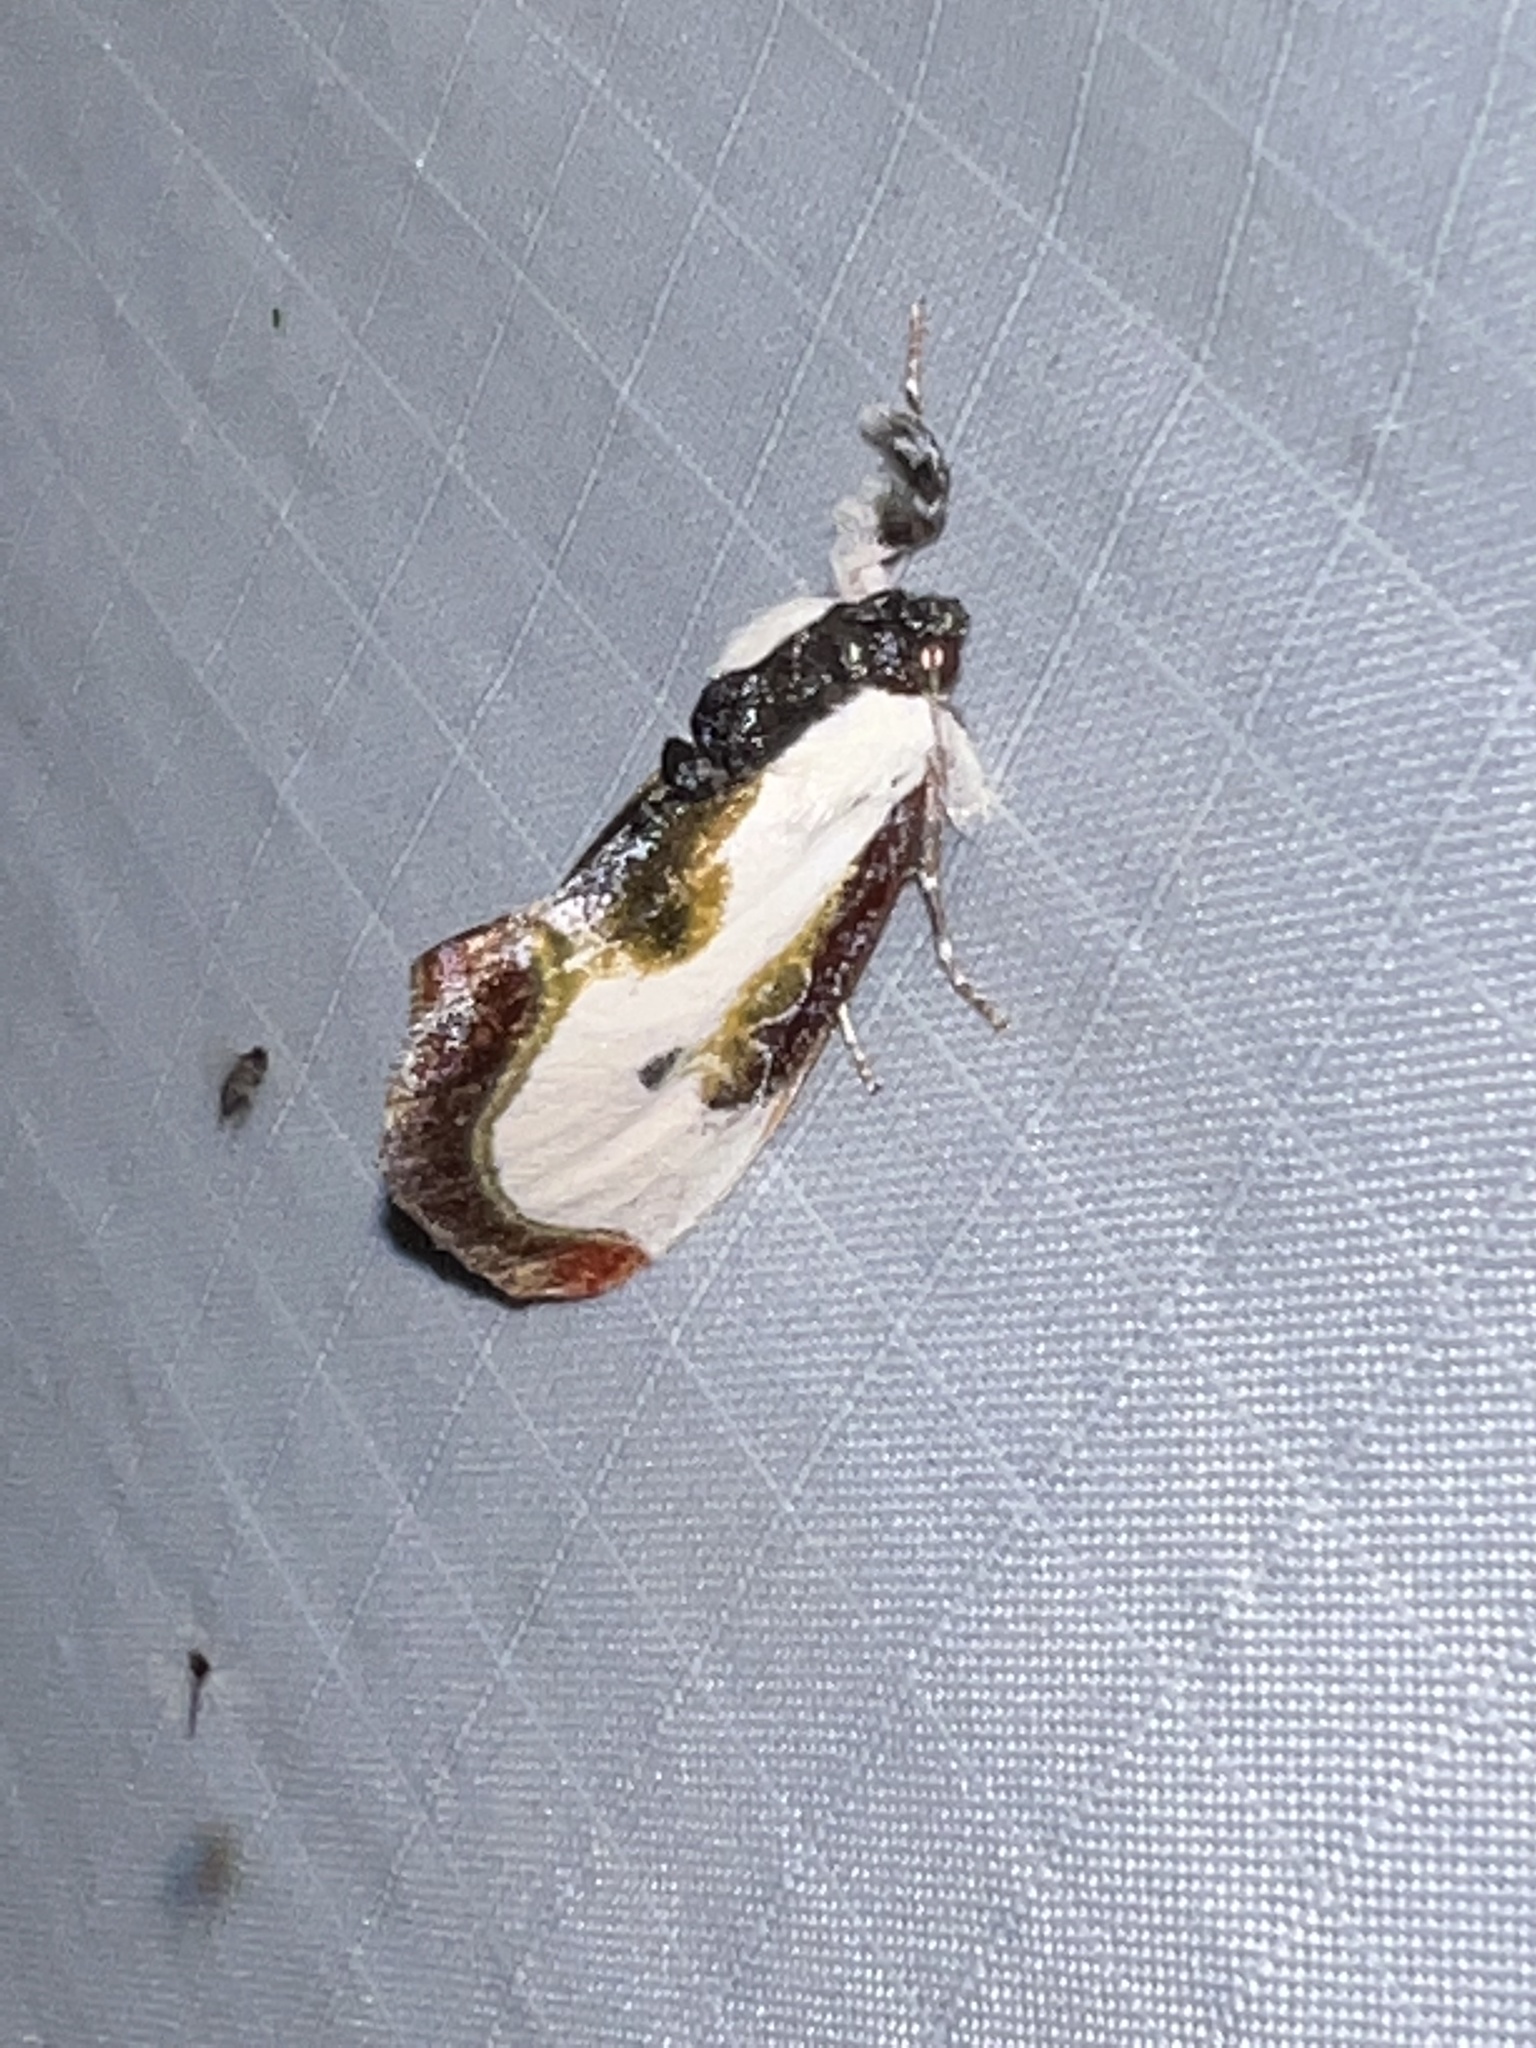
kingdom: Animalia
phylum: Arthropoda
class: Insecta
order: Lepidoptera
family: Noctuidae
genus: Eudryas
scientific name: Eudryas grata
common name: Beautiful wood-nymph
